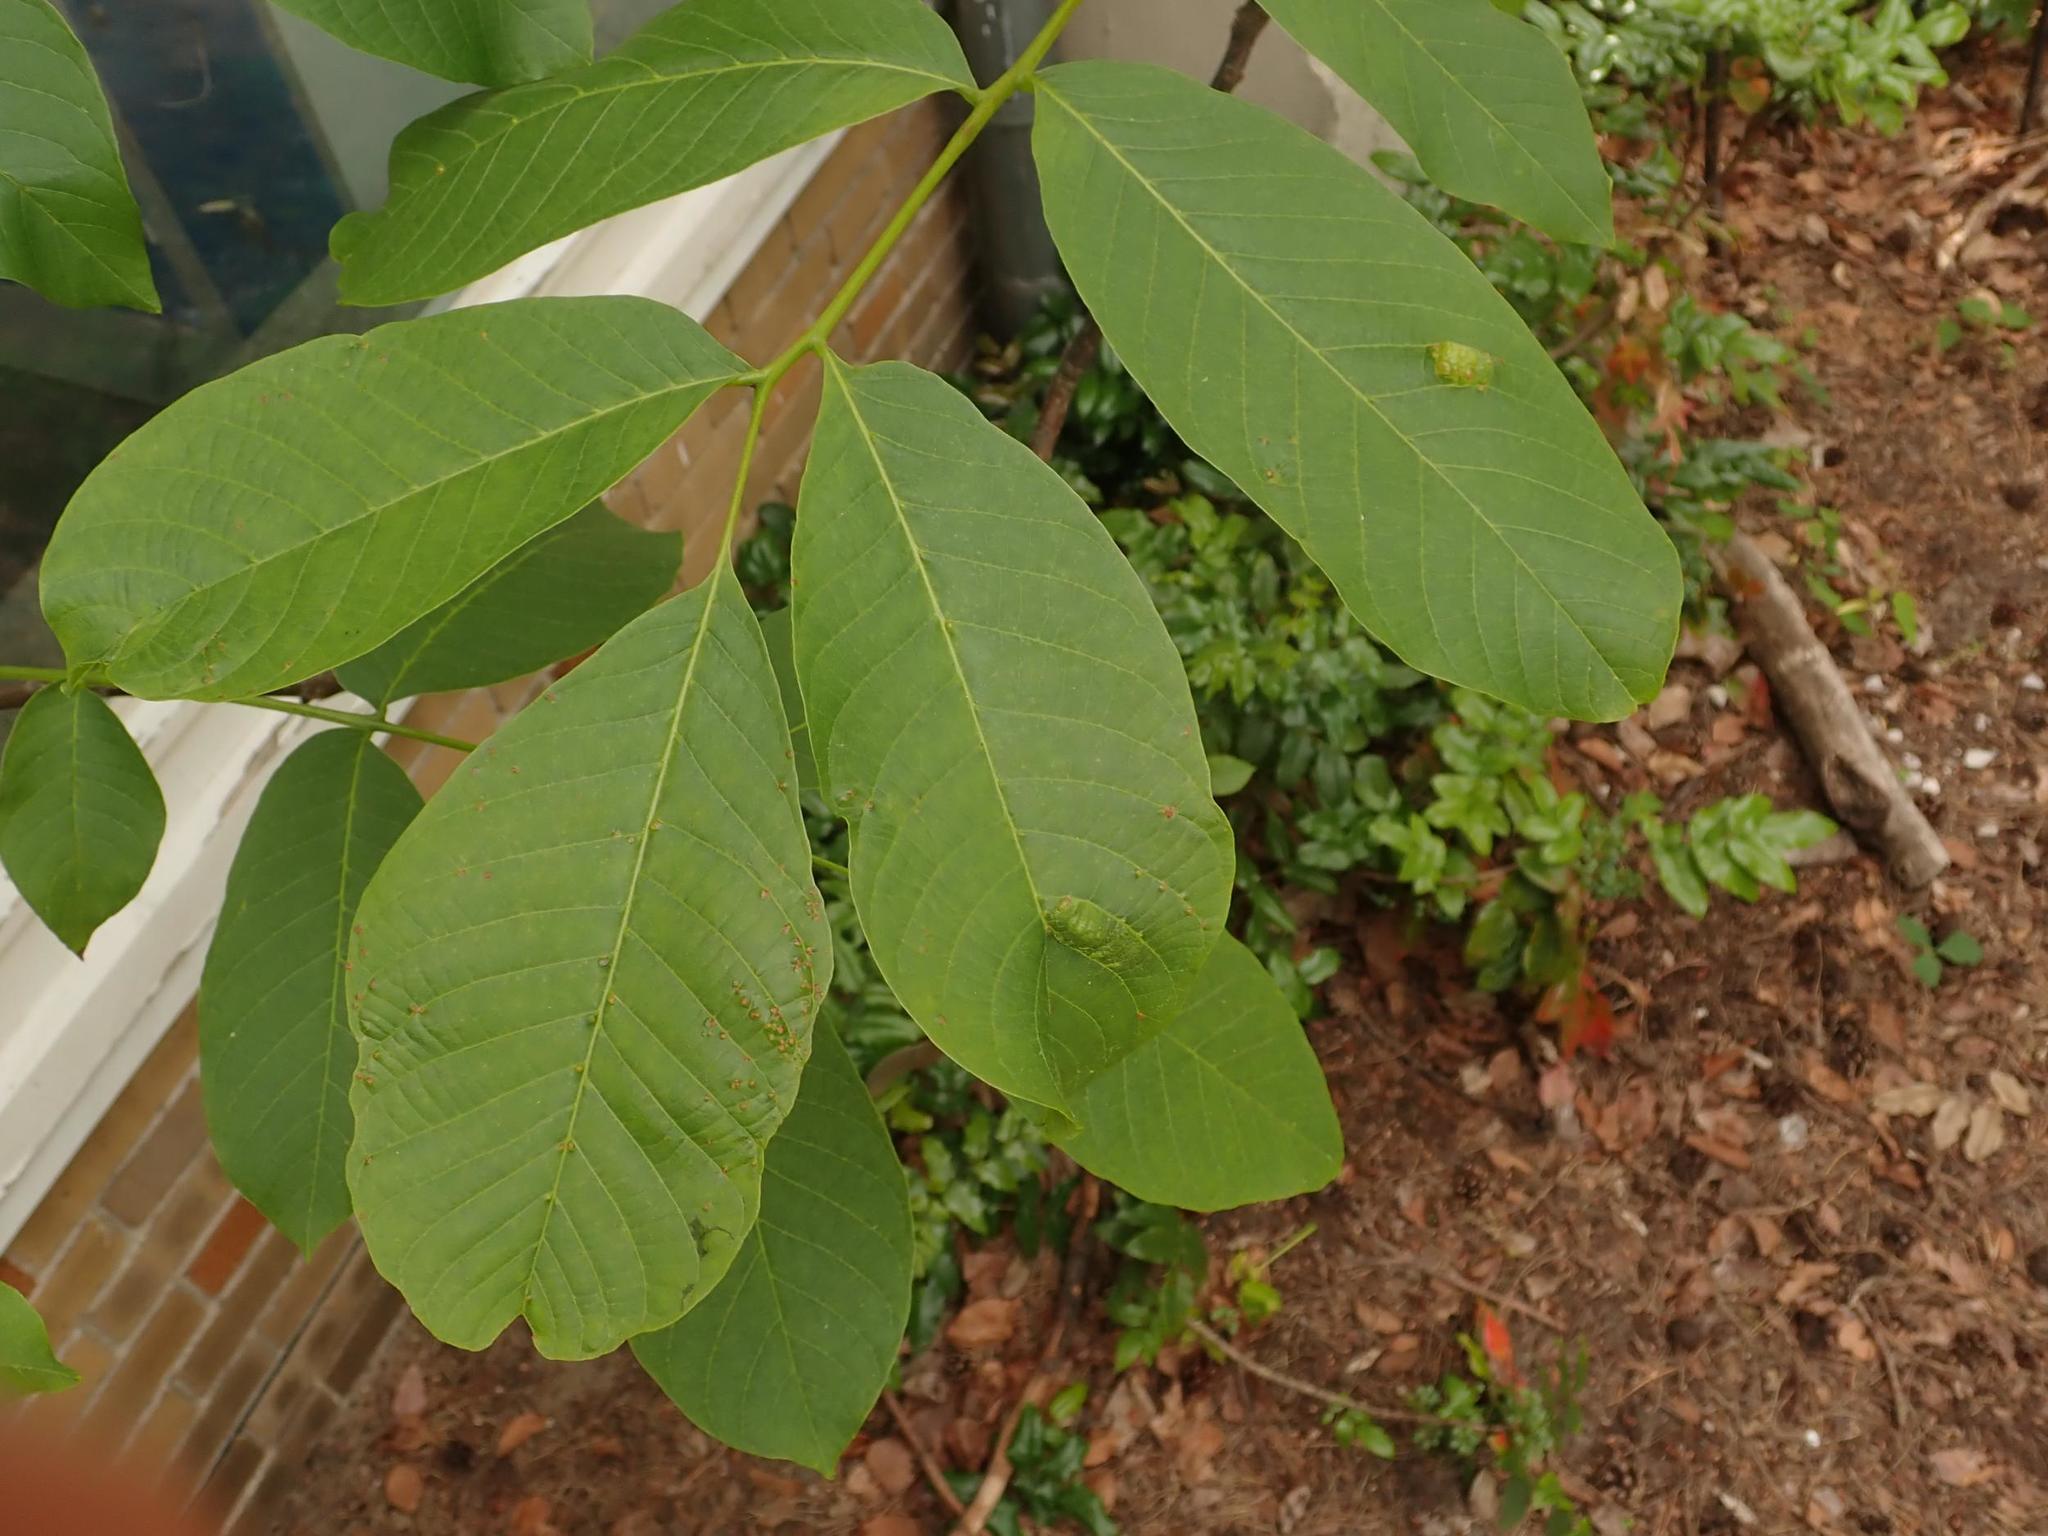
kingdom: Plantae
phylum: Tracheophyta
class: Magnoliopsida
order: Fagales
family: Juglandaceae
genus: Juglans
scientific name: Juglans regia
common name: Walnut
